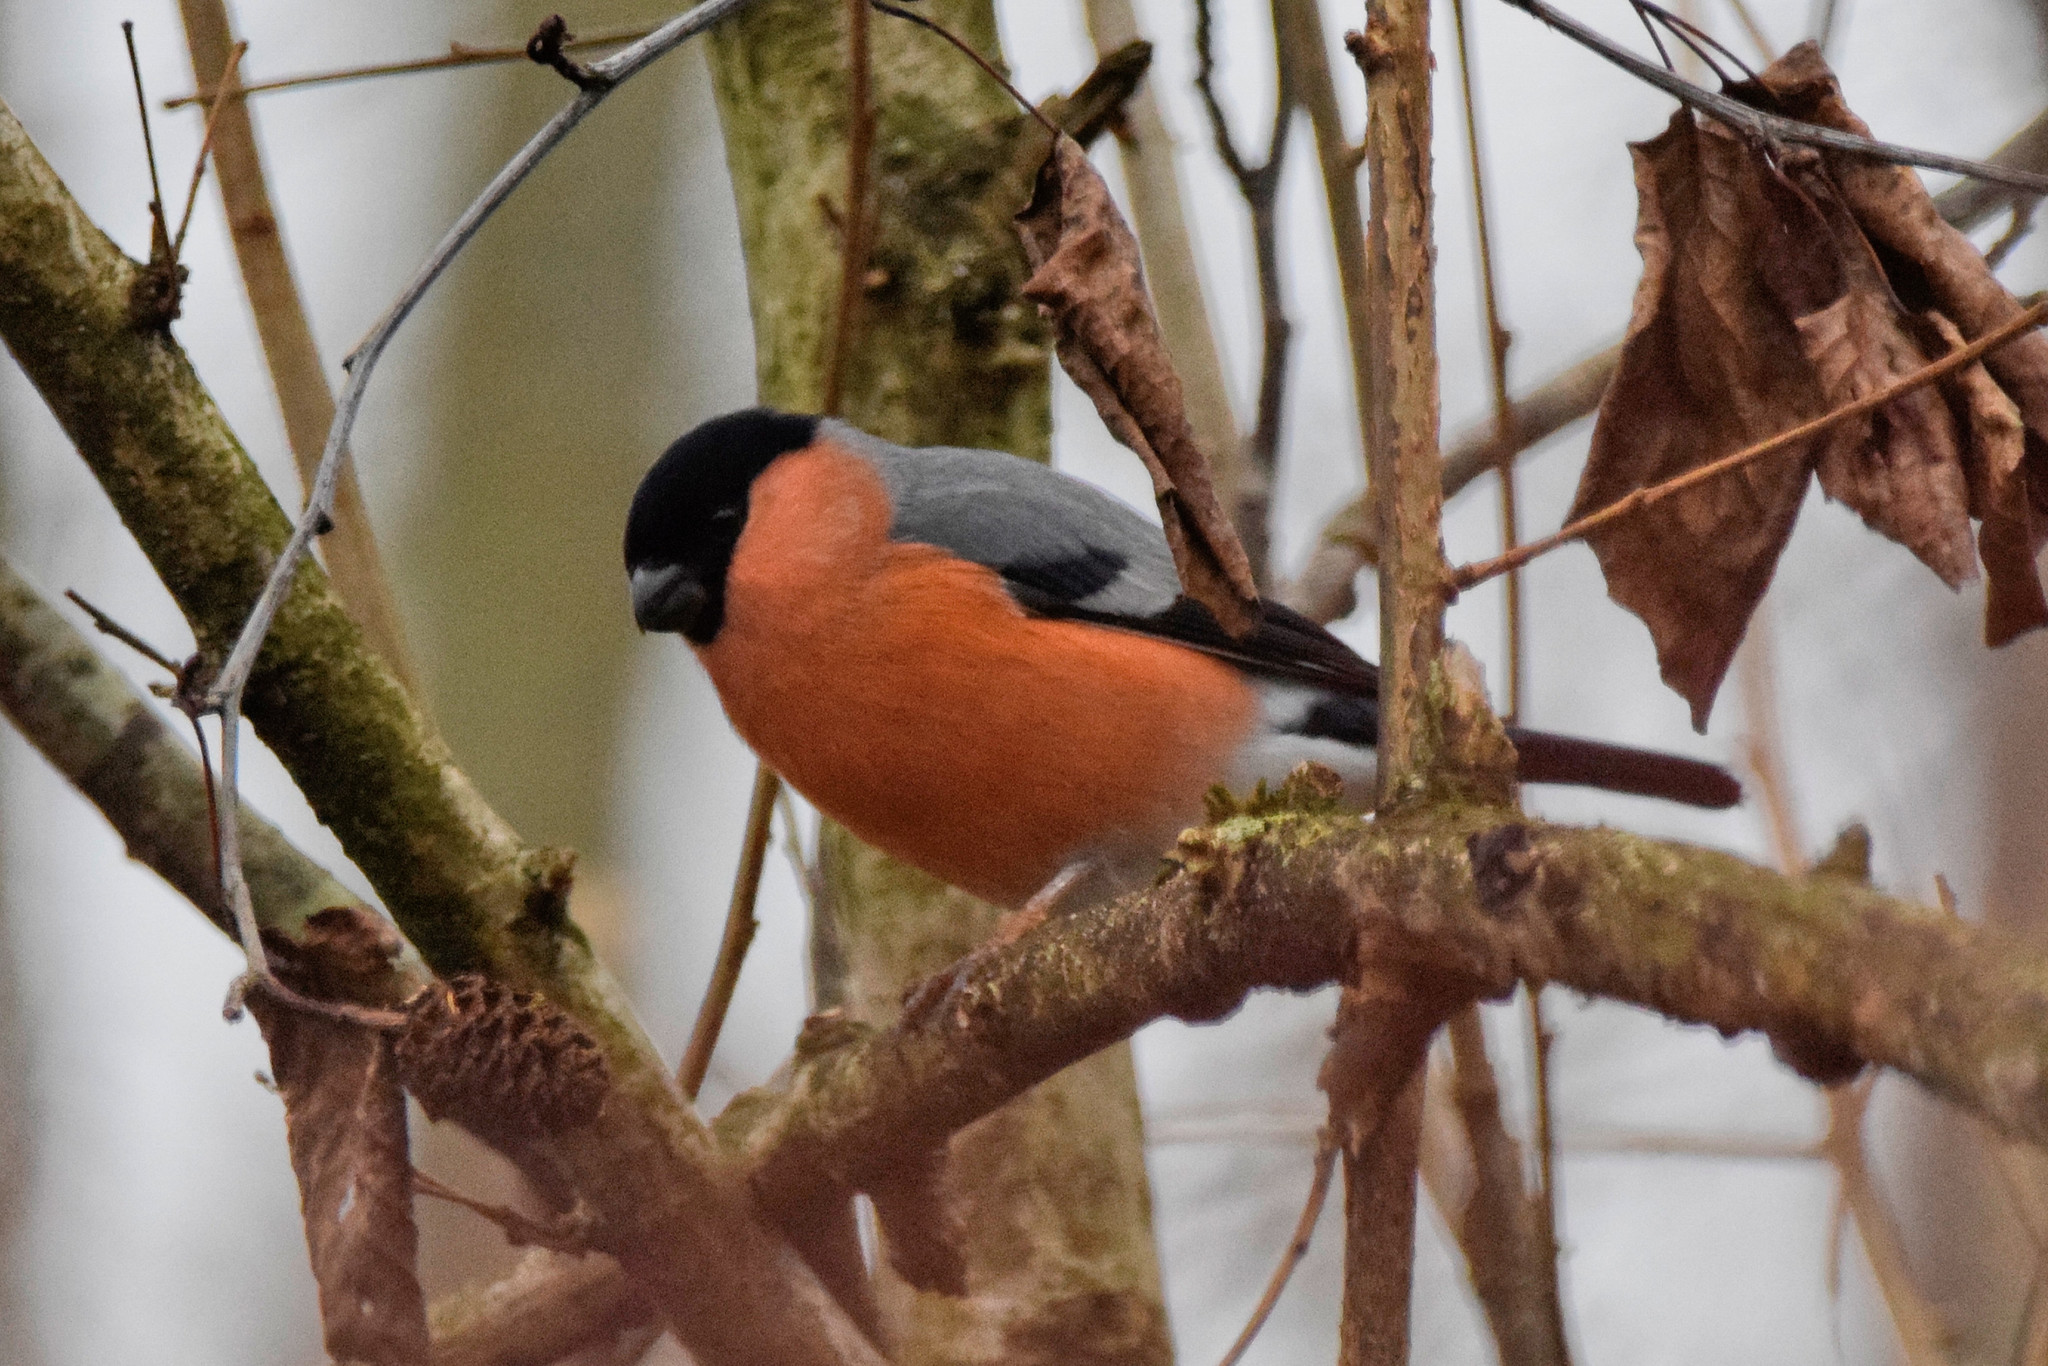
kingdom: Animalia
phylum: Chordata
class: Aves
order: Passeriformes
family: Fringillidae
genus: Pyrrhula
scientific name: Pyrrhula pyrrhula
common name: Eurasian bullfinch
